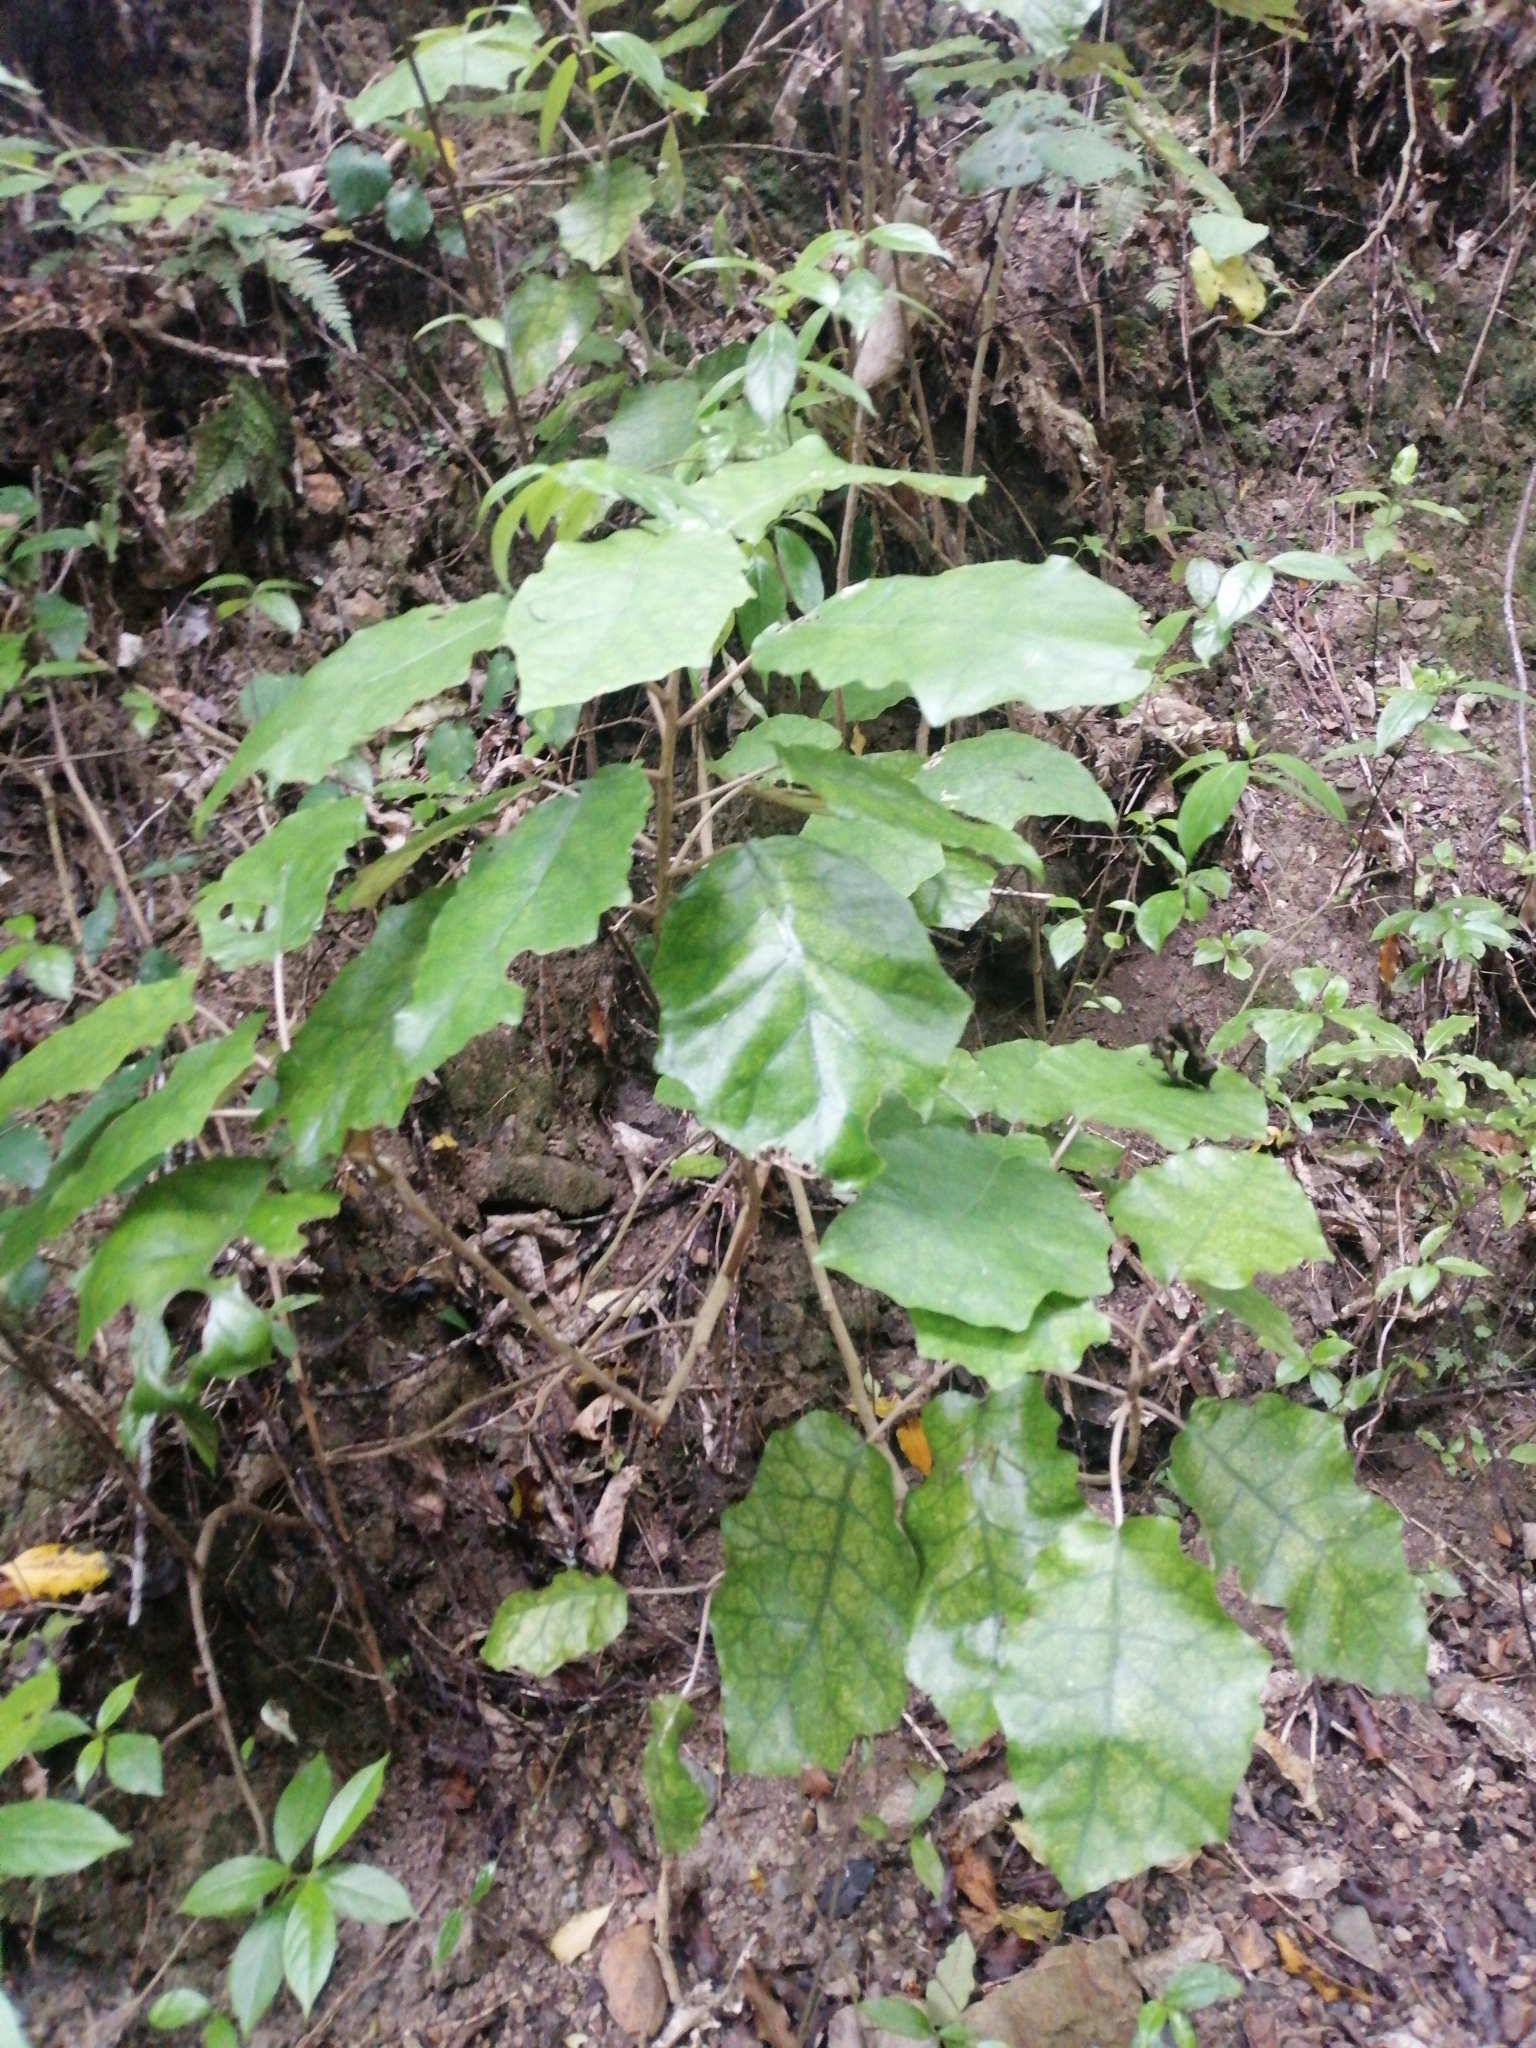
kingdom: Plantae
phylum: Tracheophyta
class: Magnoliopsida
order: Asterales
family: Asteraceae
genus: Brachyglottis
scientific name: Brachyglottis repanda
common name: Hedge ragwort
